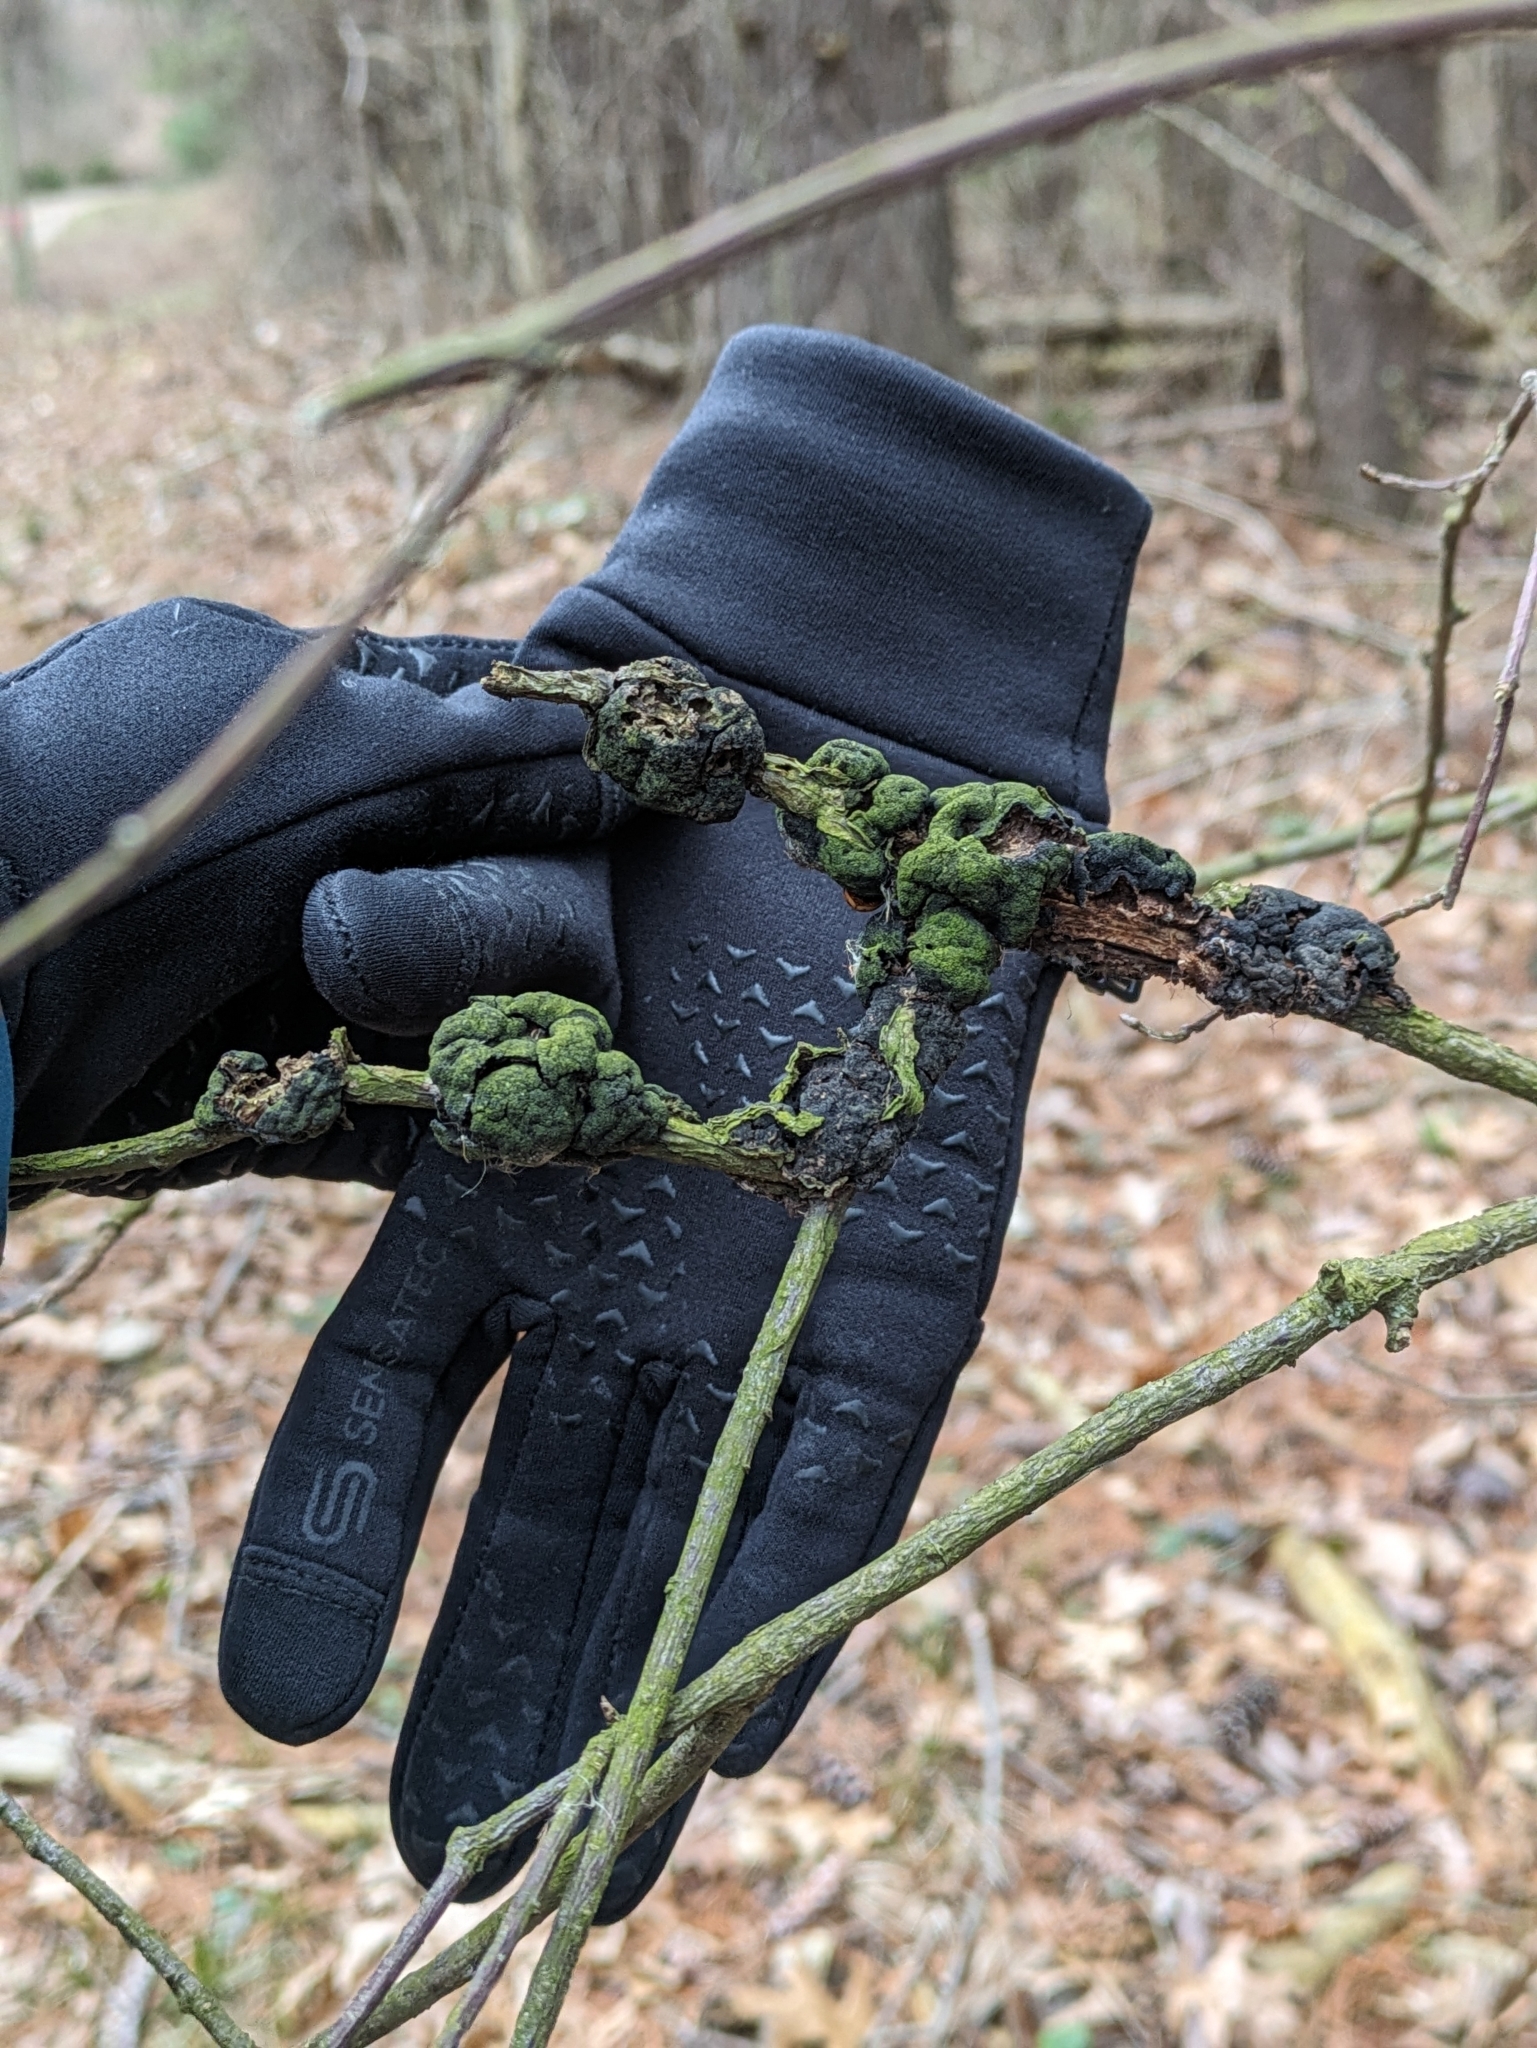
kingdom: Fungi
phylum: Ascomycota
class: Dothideomycetes
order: Venturiales
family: Venturiaceae
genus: Apiosporina
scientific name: Apiosporina morbosa
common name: Black knot
